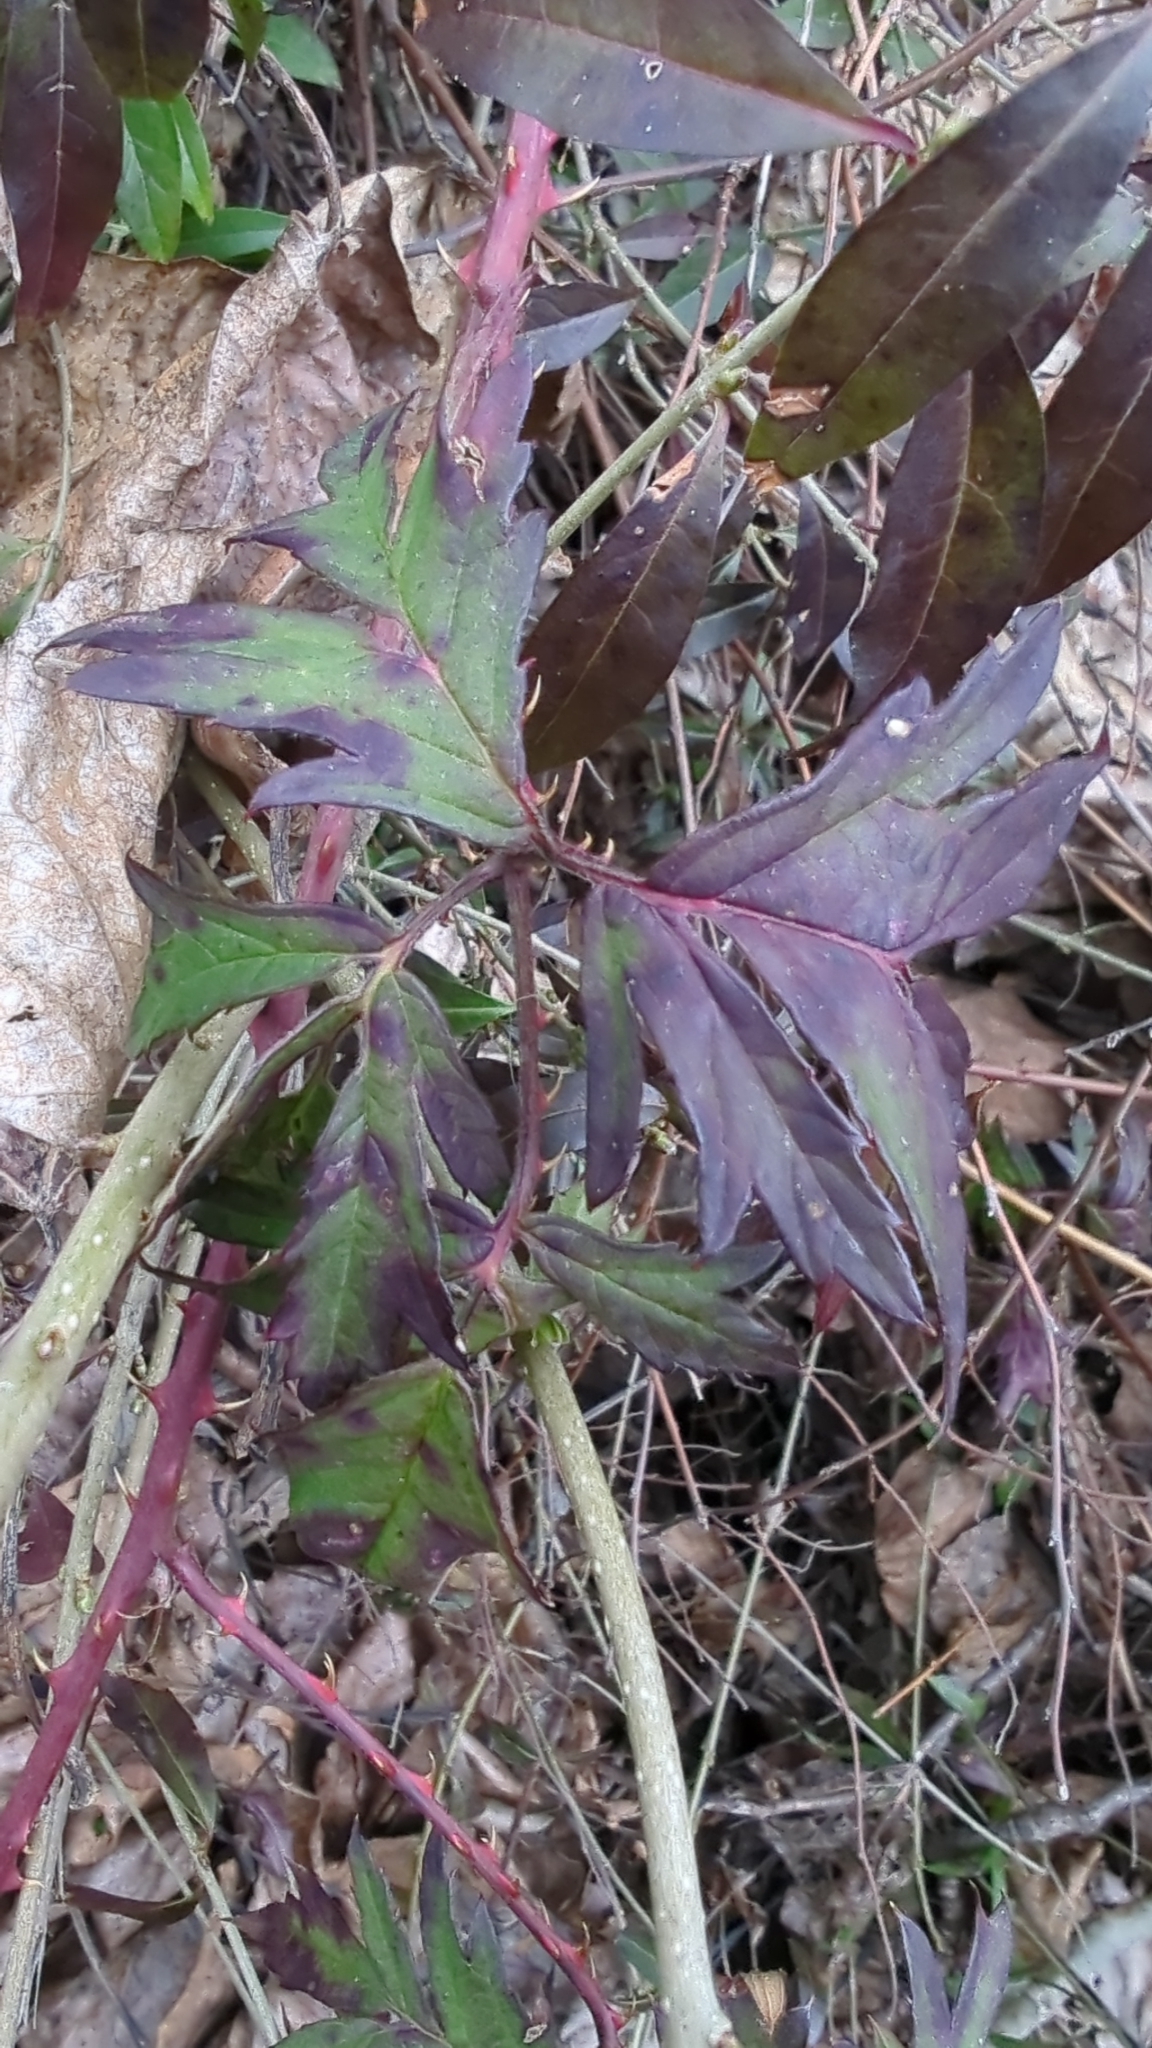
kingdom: Plantae
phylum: Tracheophyta
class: Magnoliopsida
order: Rosales
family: Rosaceae
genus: Rubus
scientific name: Rubus laciniatus
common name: Evergreen blackberry
